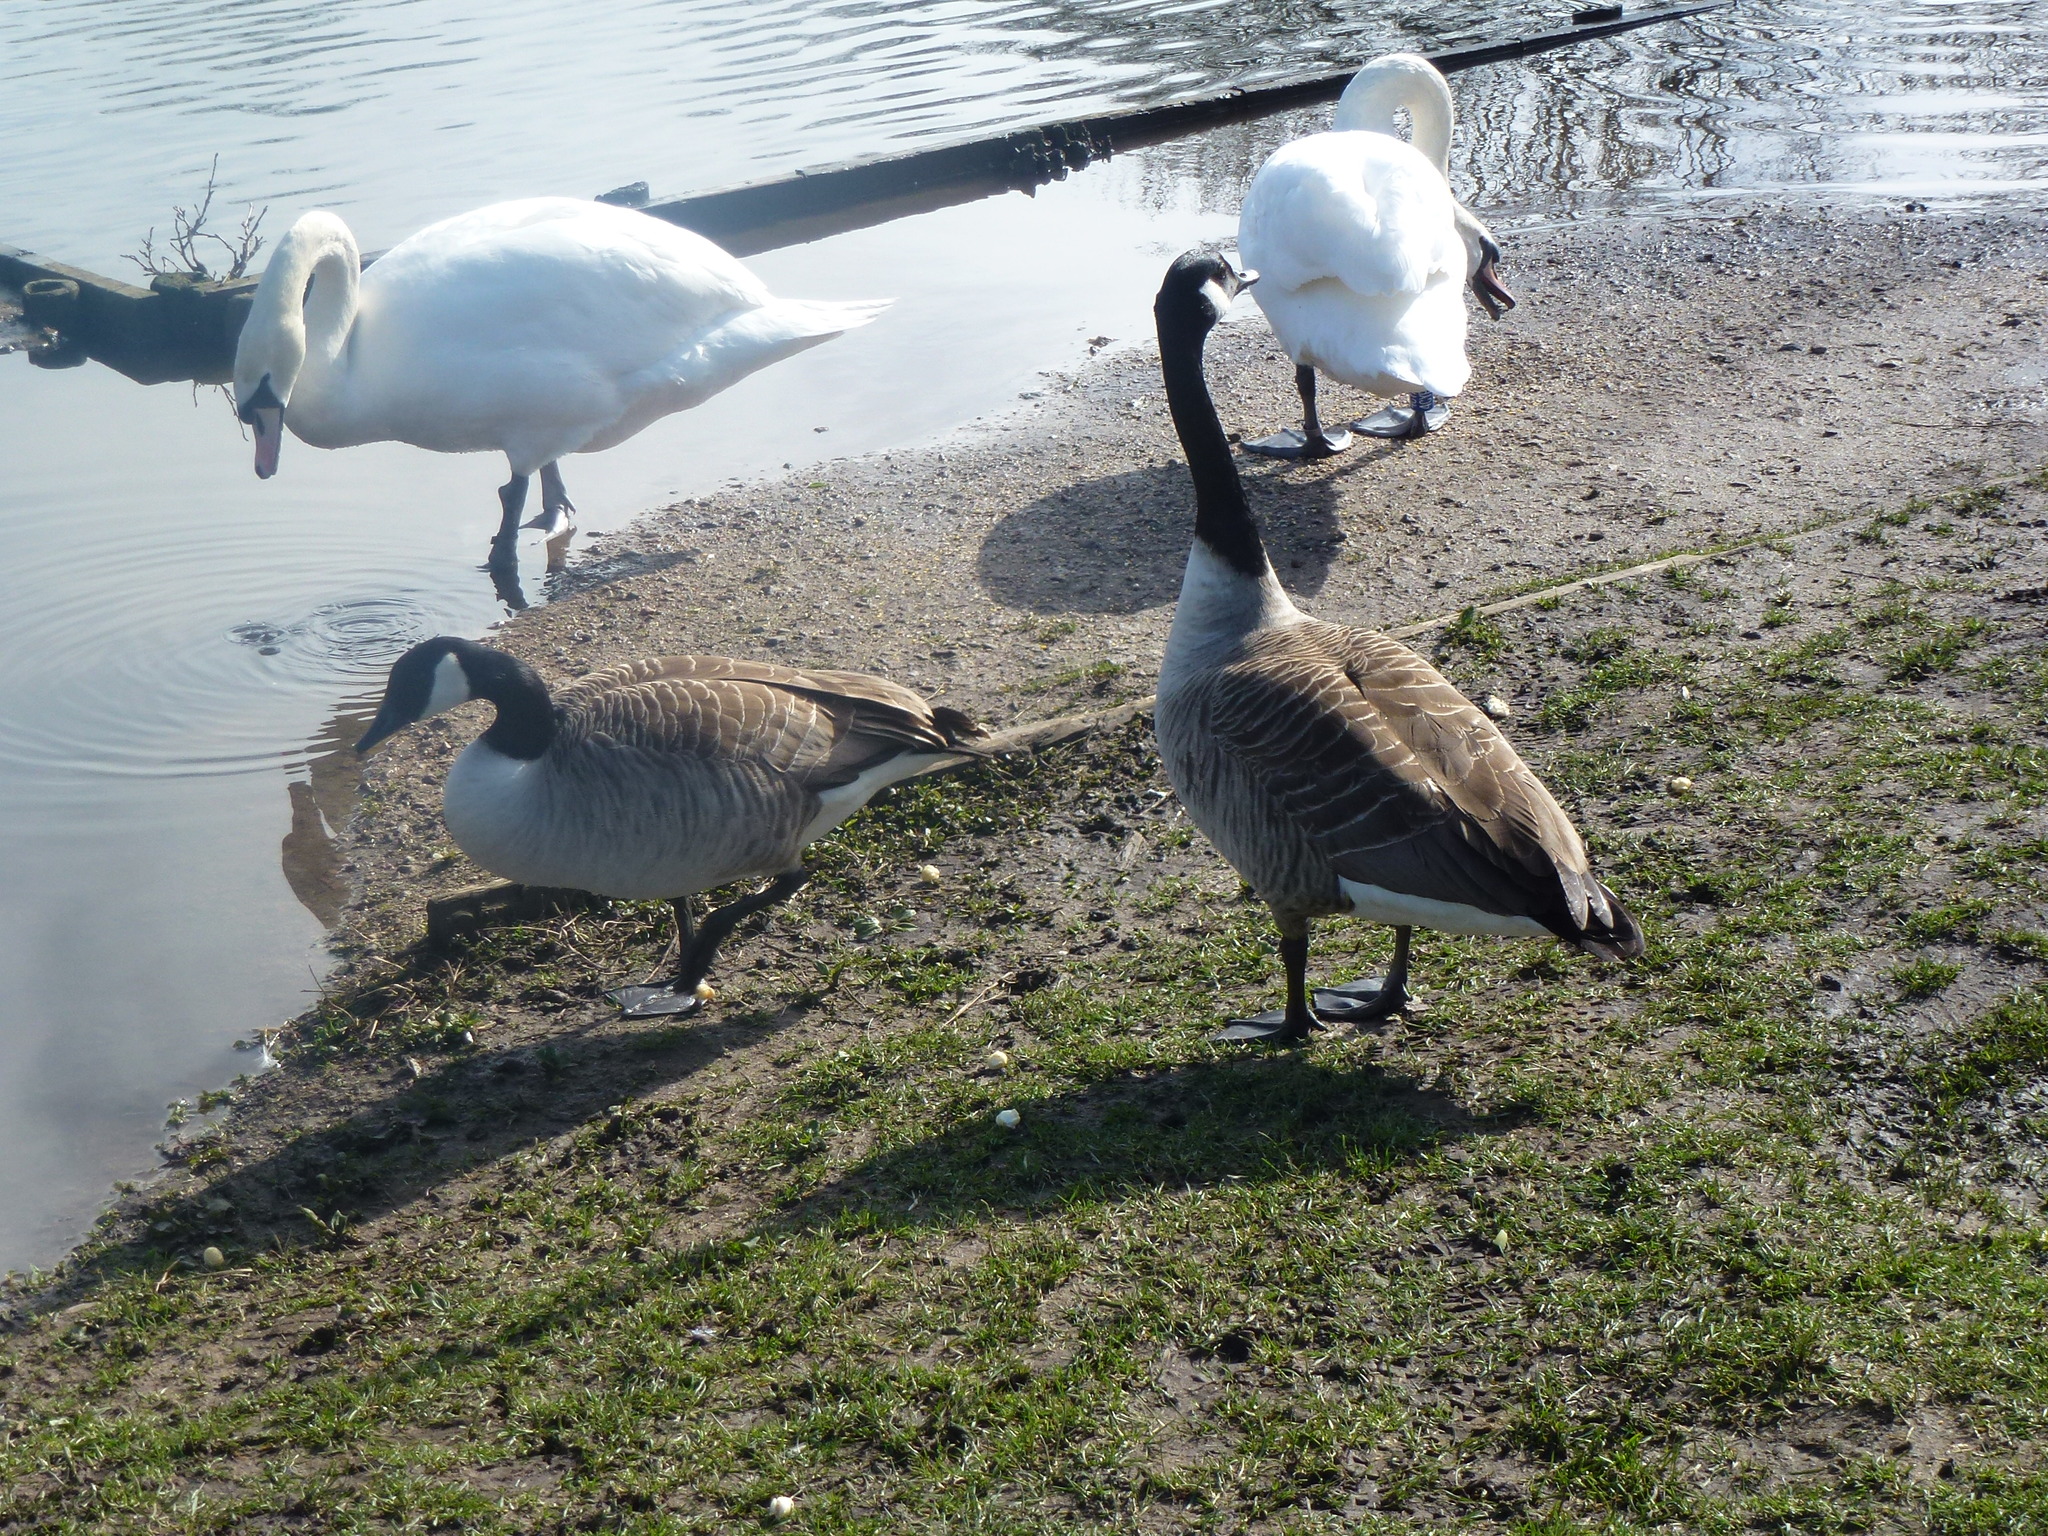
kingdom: Animalia
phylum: Chordata
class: Aves
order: Anseriformes
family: Anatidae
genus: Cygnus
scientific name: Cygnus olor
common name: Mute swan
